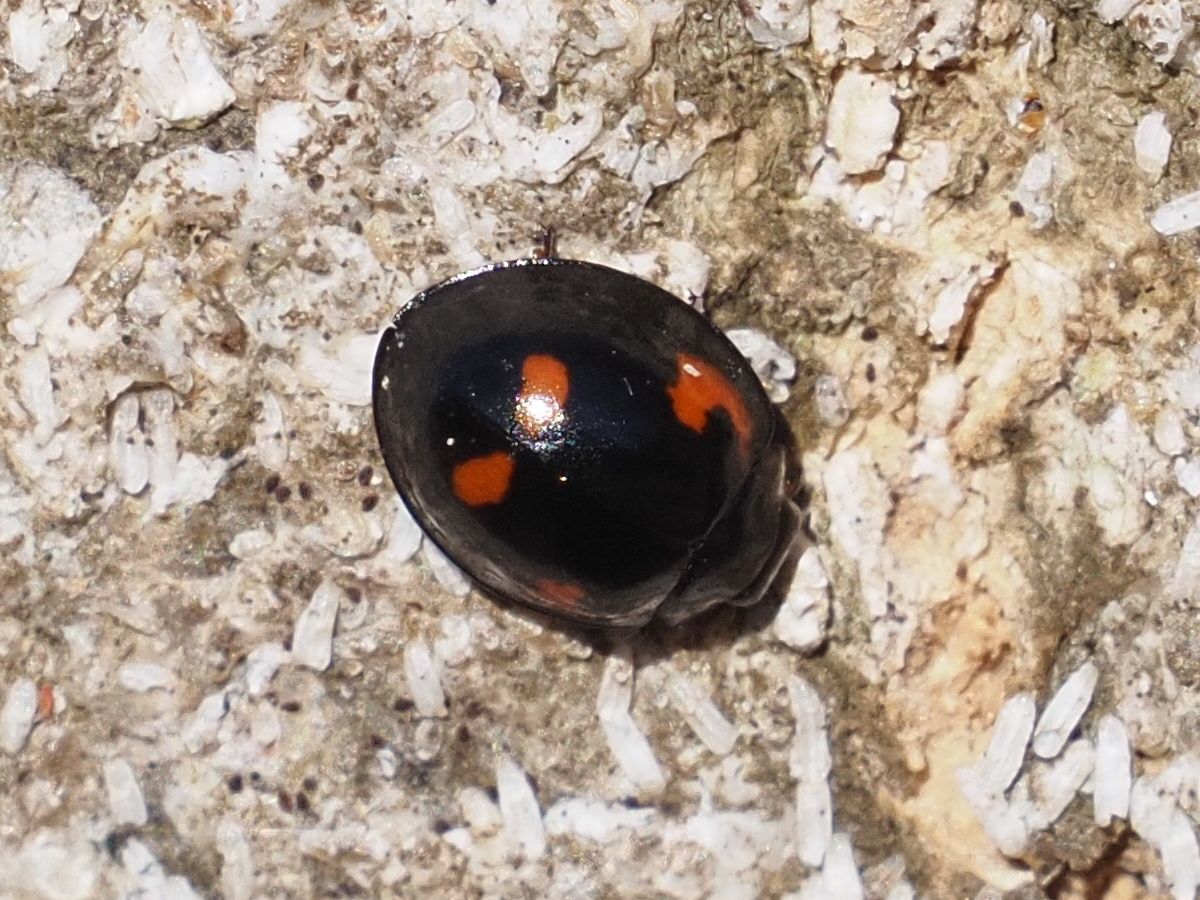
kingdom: Animalia
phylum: Arthropoda
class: Insecta
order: Coleoptera
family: Coccinellidae
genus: Brumus
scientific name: Brumus quadripustulatus
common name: Ladybird beetle
